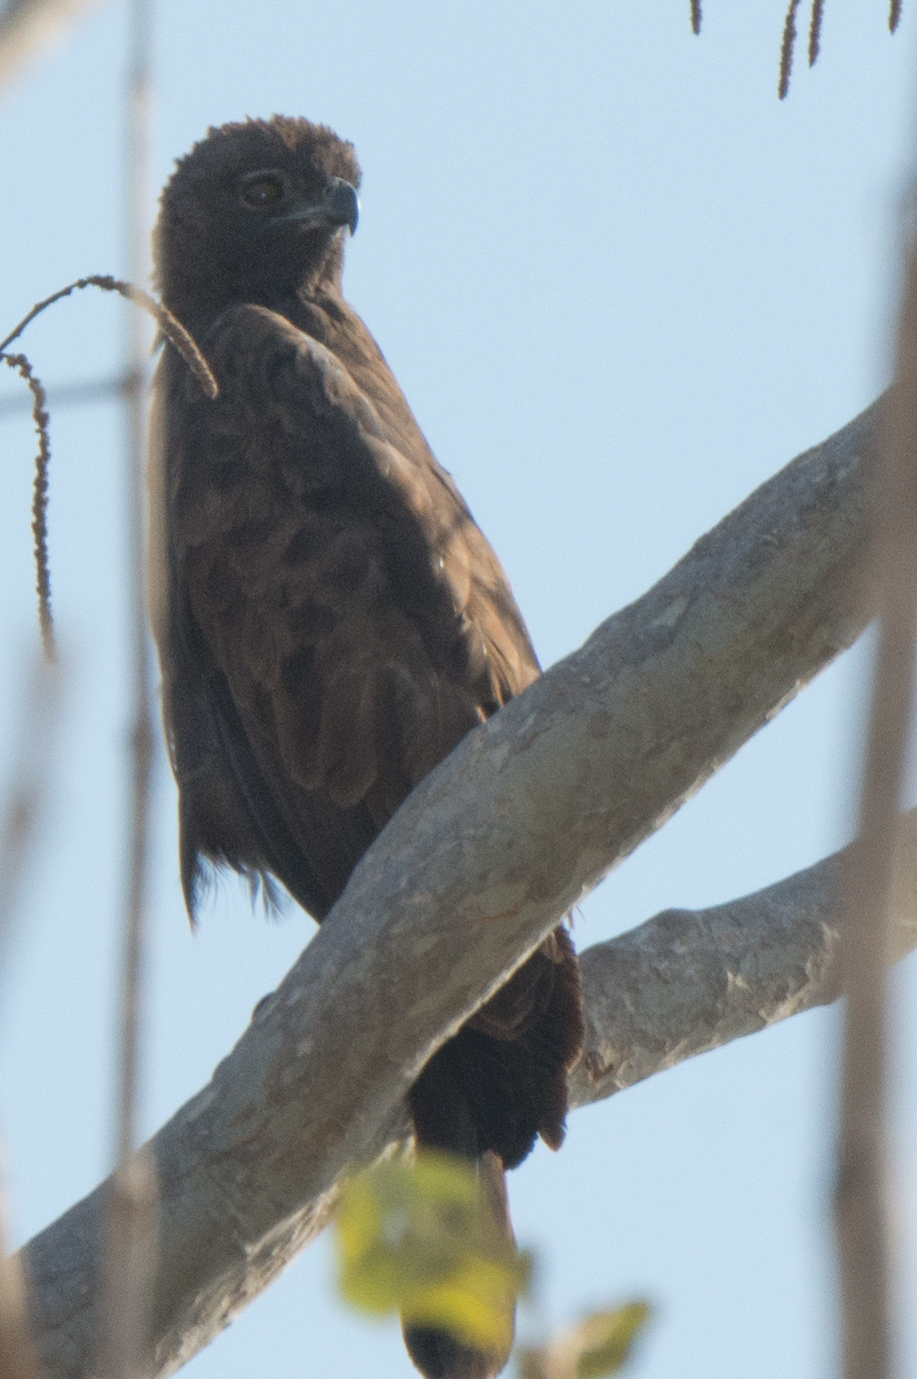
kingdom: Animalia
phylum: Chordata
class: Aves
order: Accipitriformes
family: Accipitridae
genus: Nisaetus
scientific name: Nisaetus cirrhatus
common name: Changeable hawk-eagle
